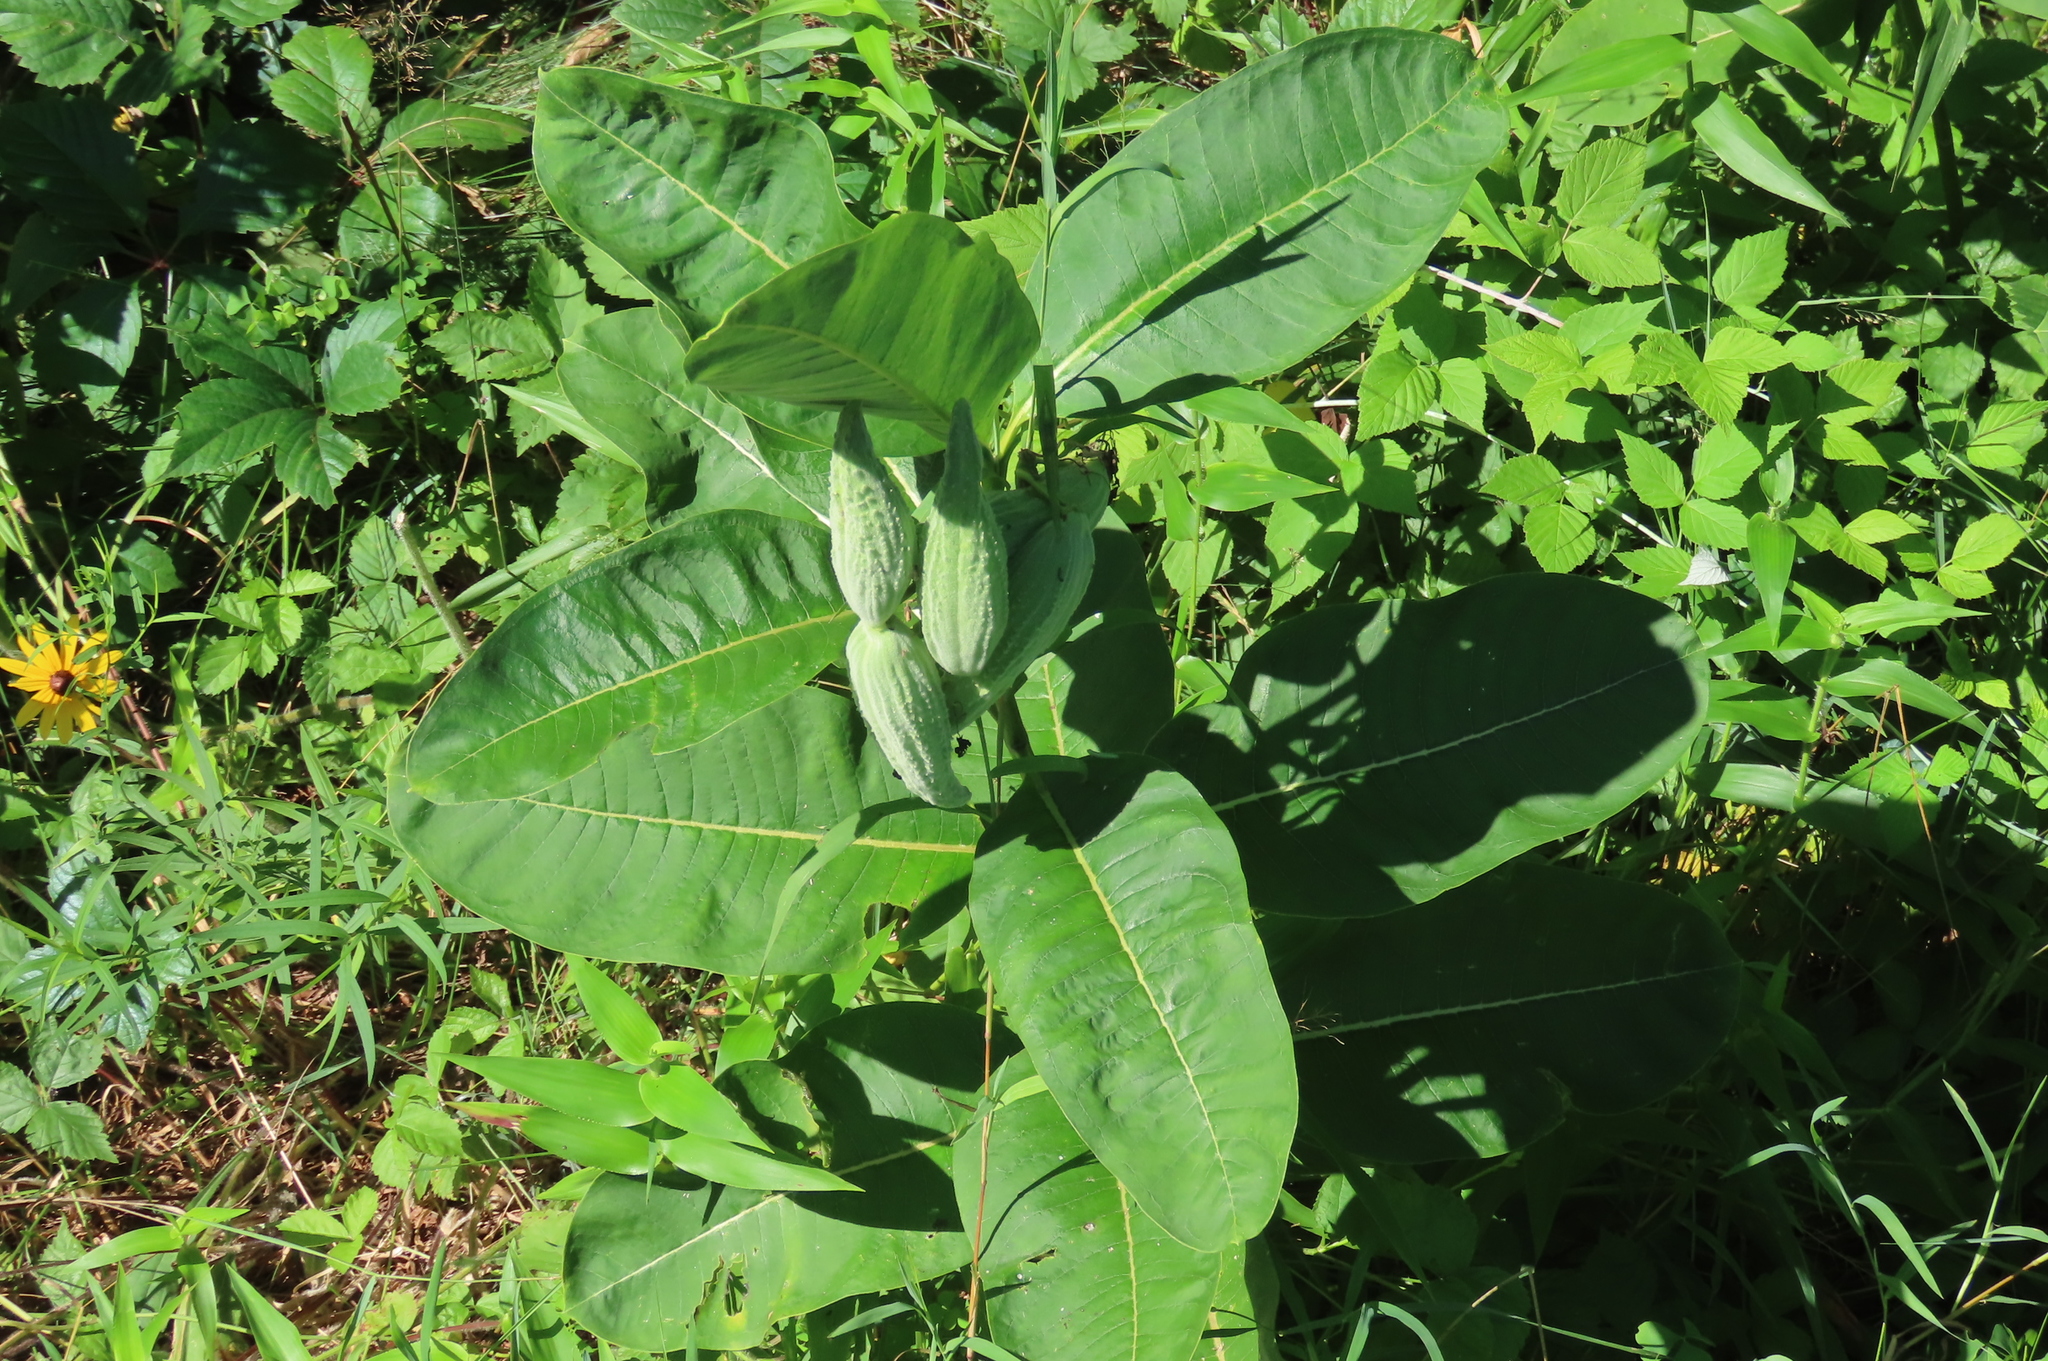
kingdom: Plantae
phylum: Tracheophyta
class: Magnoliopsida
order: Gentianales
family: Apocynaceae
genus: Asclepias
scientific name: Asclepias syriaca
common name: Common milkweed
